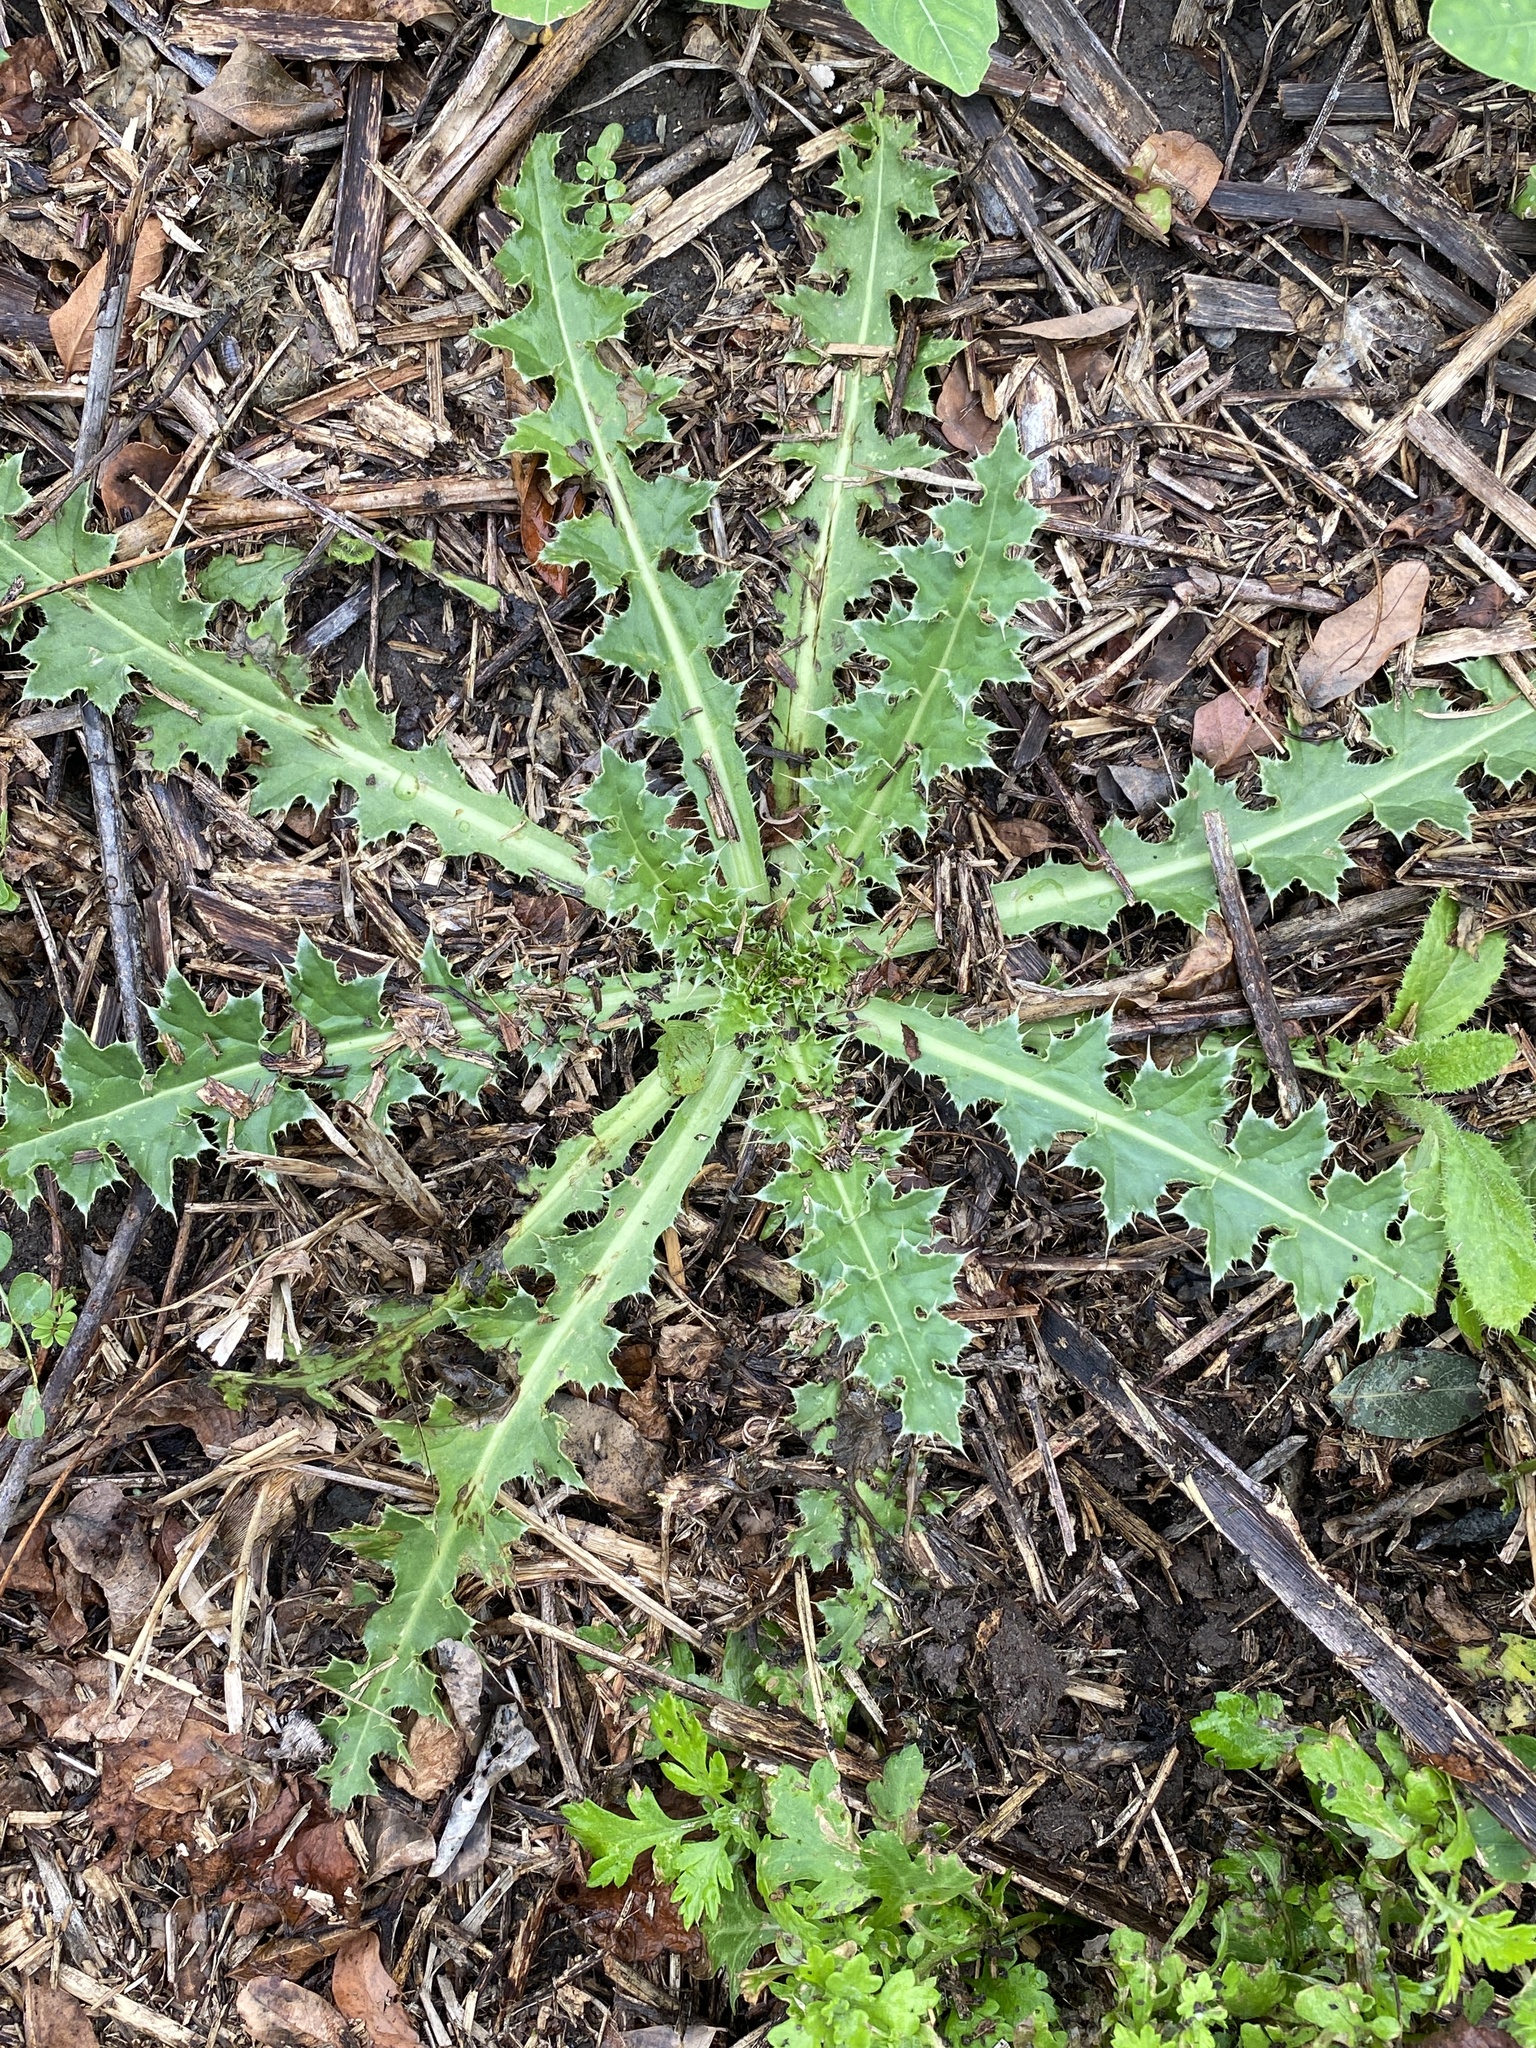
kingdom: Plantae
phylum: Tracheophyta
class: Magnoliopsida
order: Asterales
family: Asteraceae
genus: Carduus
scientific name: Carduus nutans
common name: Musk thistle
